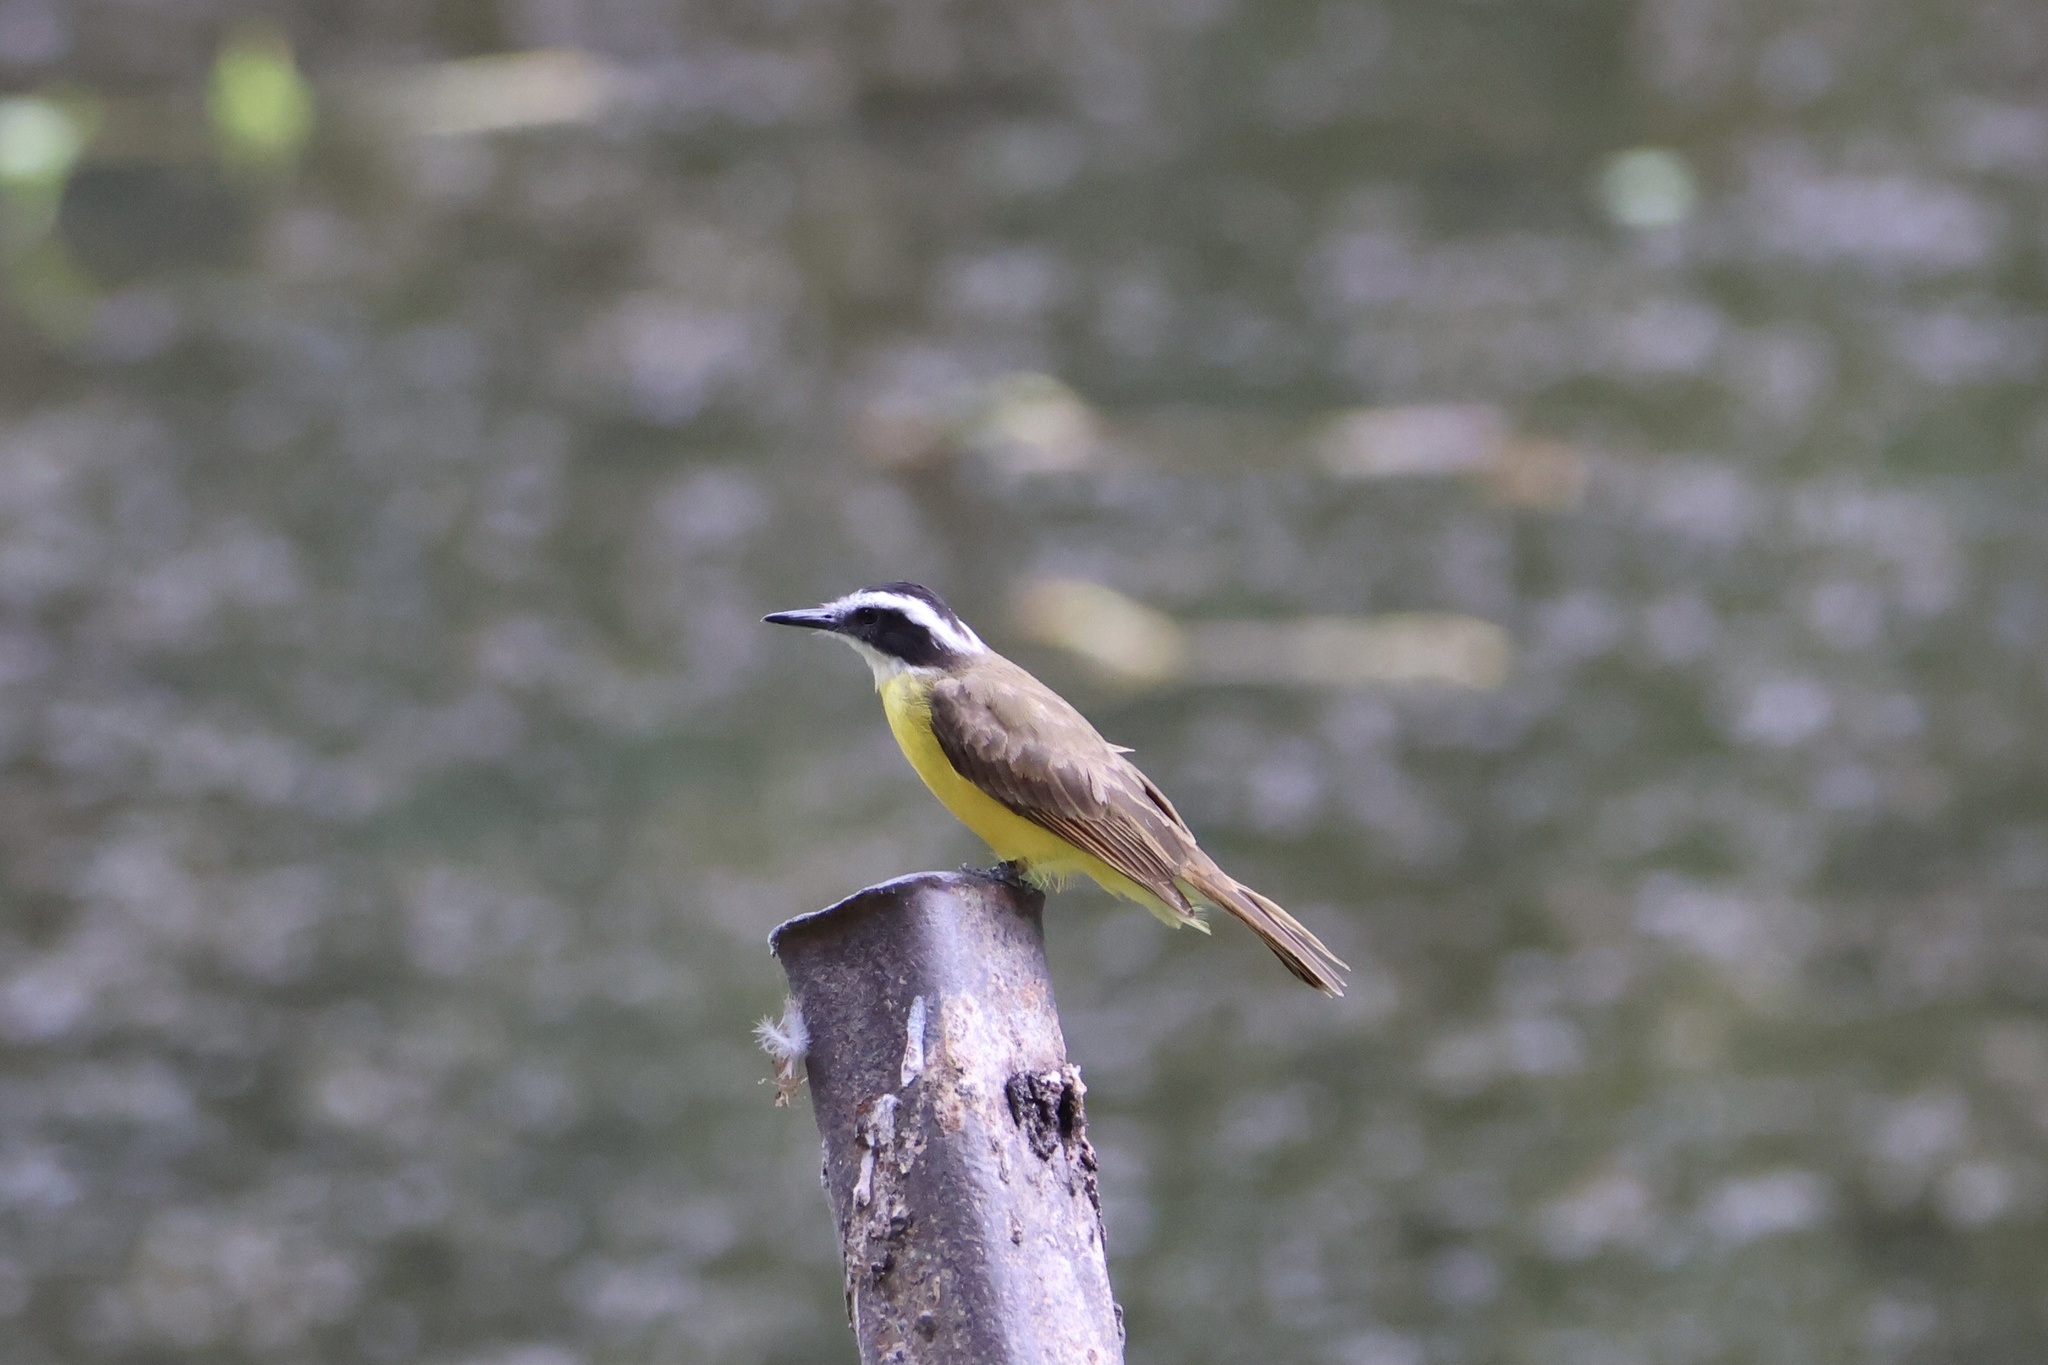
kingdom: Animalia
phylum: Chordata
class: Aves
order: Passeriformes
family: Tyrannidae
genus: Pitangus
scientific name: Pitangus lictor
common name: Lesser kiskadee
